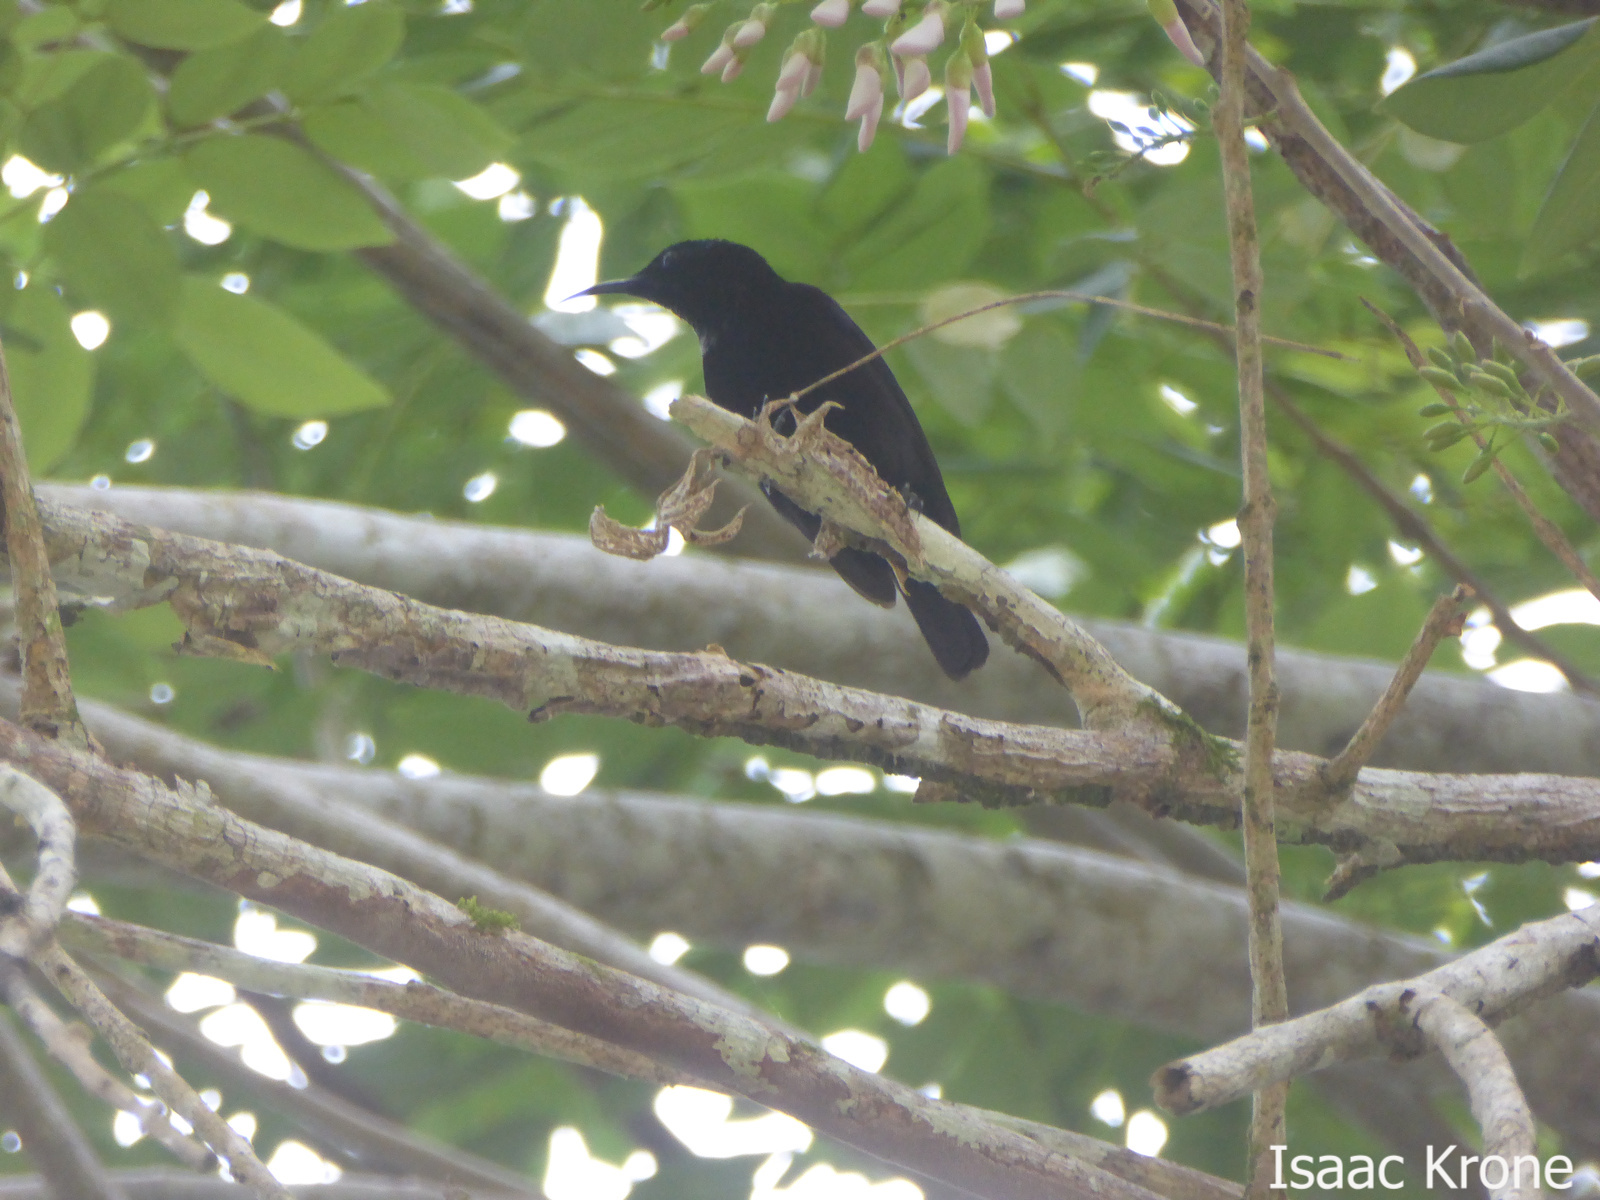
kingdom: Animalia
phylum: Chordata
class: Aves
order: Passeriformes
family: Nectariniidae
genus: Leptocoma
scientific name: Leptocoma sericea
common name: Black sunbird
